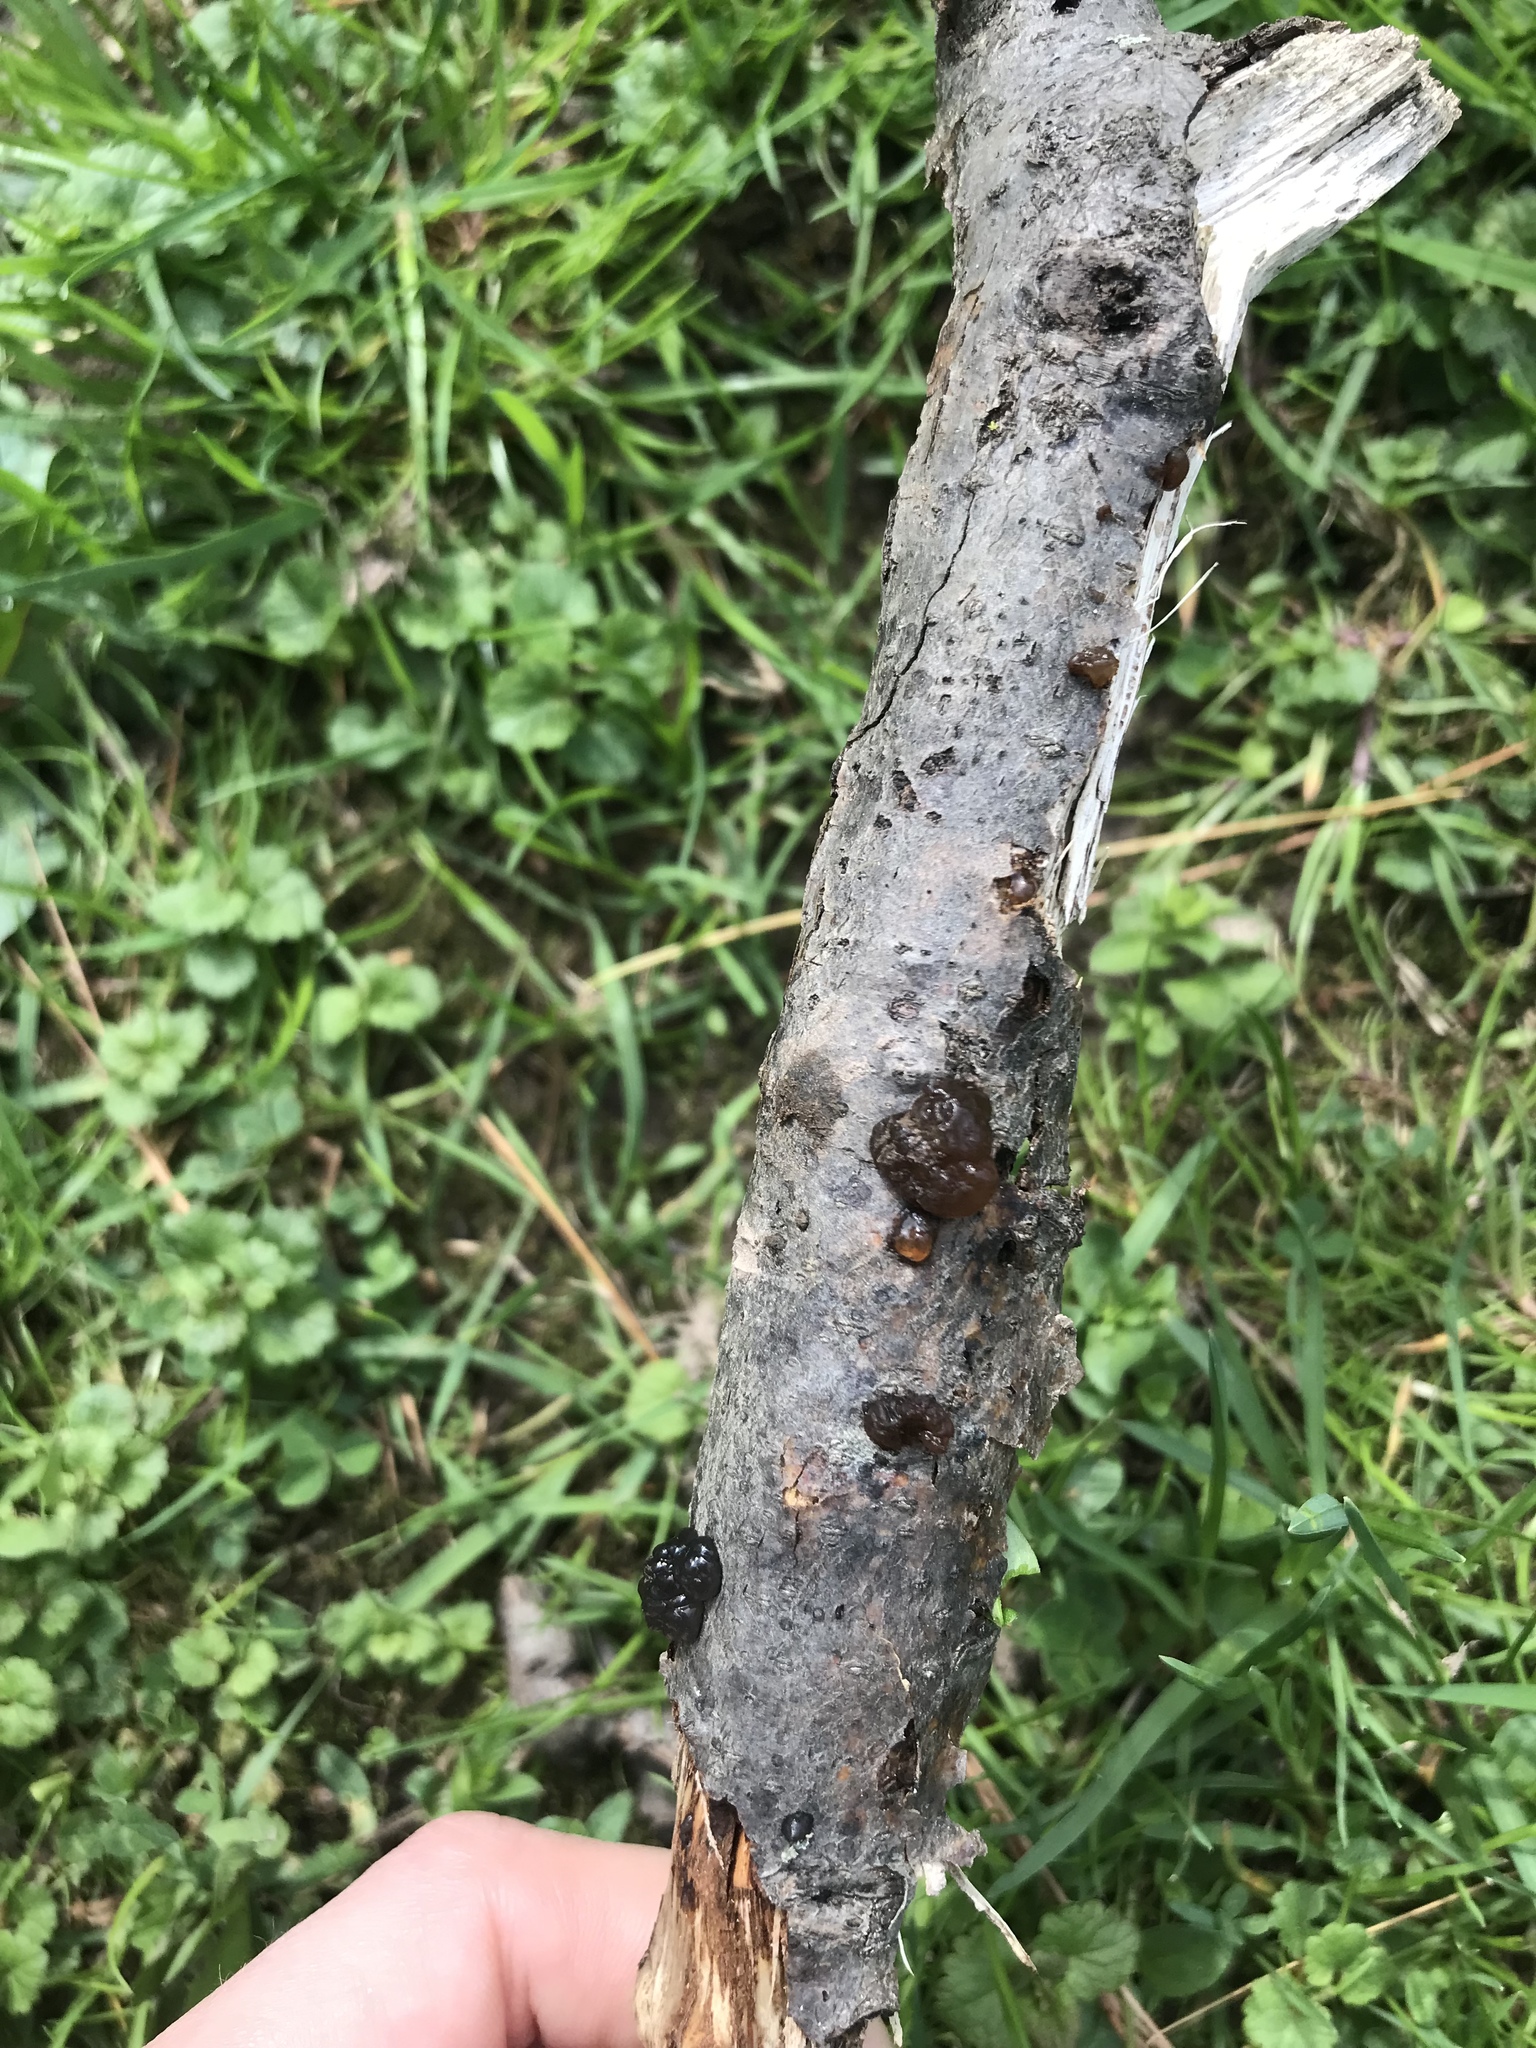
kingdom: Fungi
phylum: Basidiomycota
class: Agaricomycetes
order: Auriculariales
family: Auriculariaceae
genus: Exidia
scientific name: Exidia
